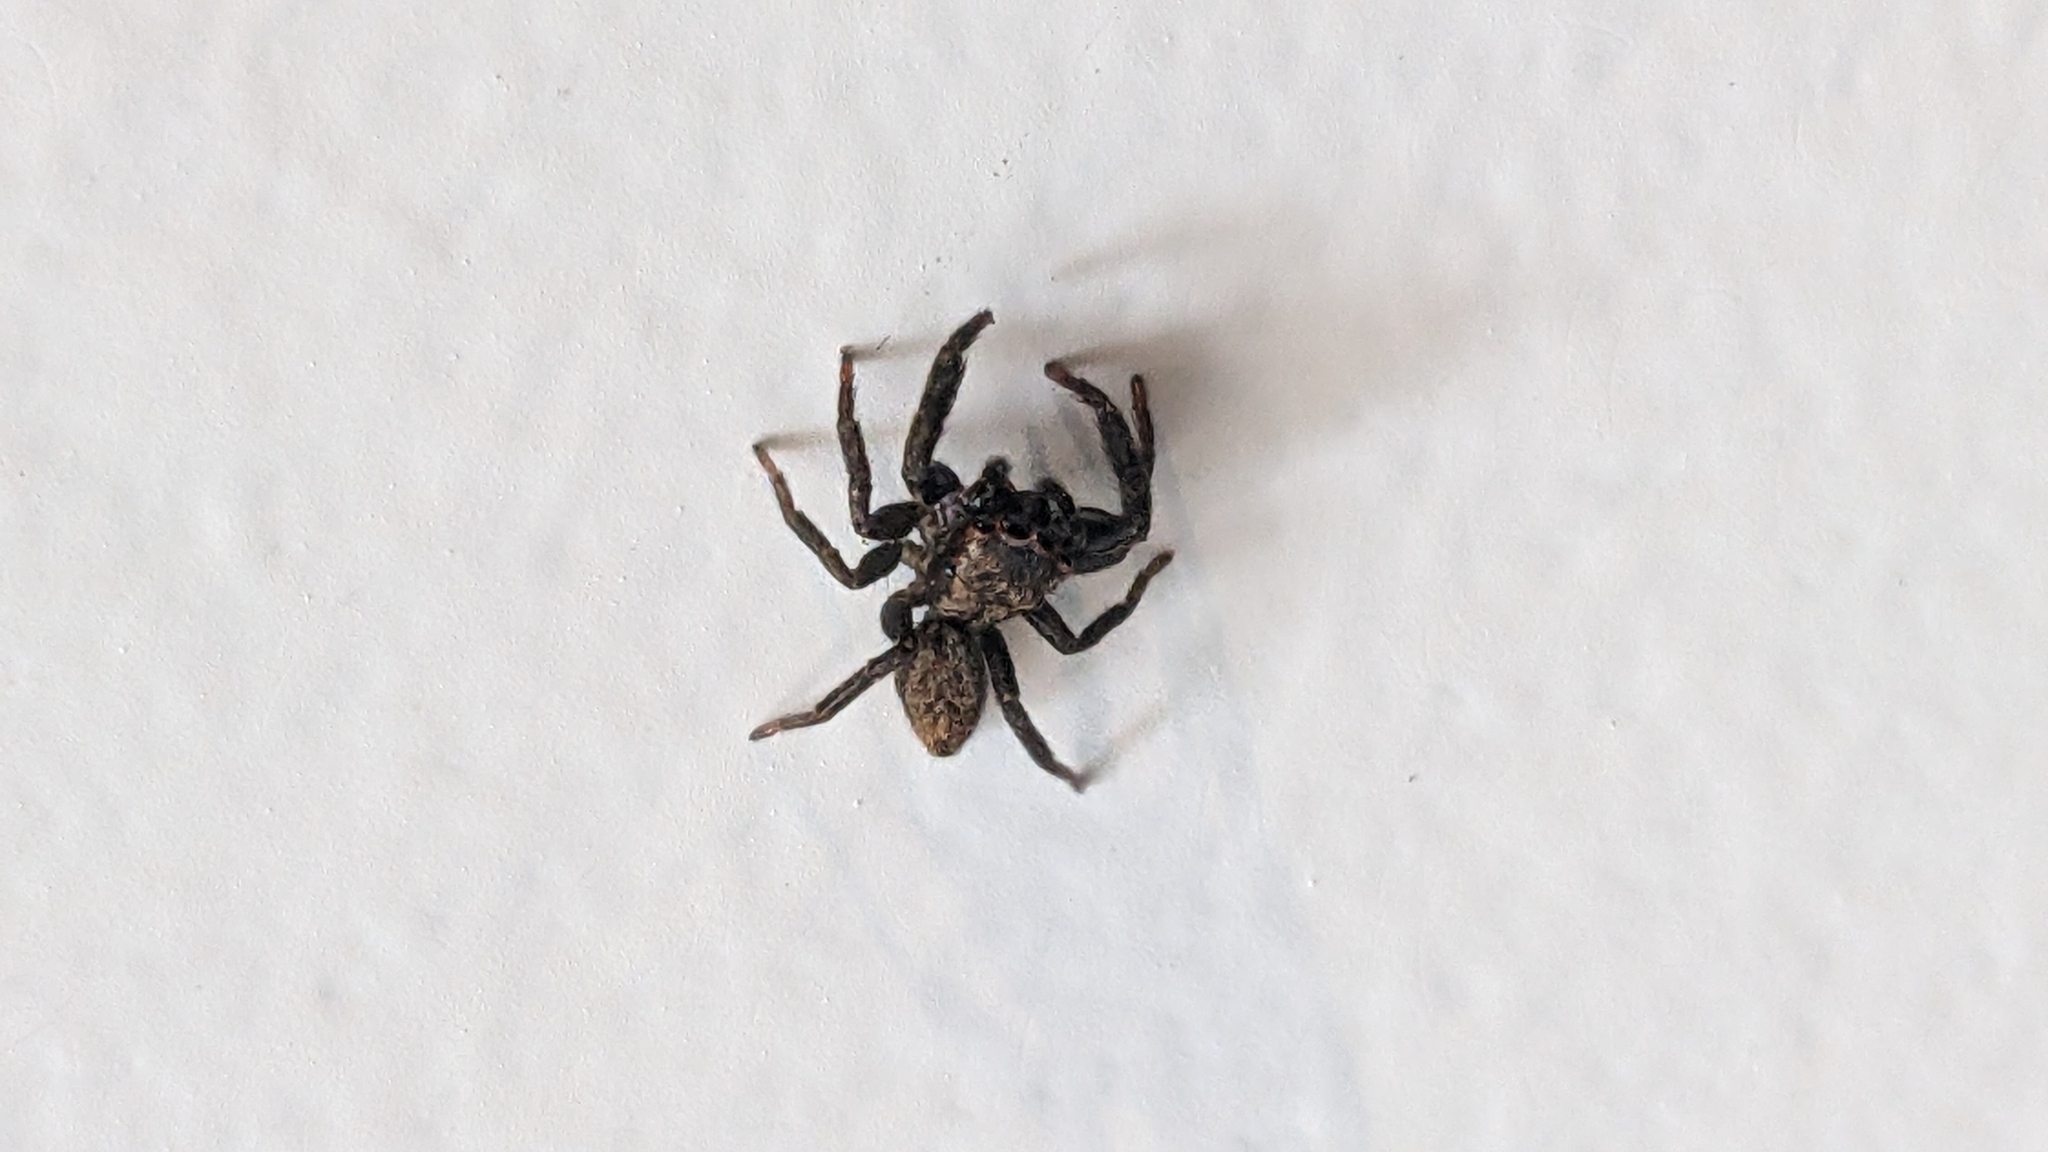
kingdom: Animalia
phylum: Arthropoda
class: Arachnida
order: Araneae
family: Salticidae
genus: Trite
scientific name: Trite auricoma
